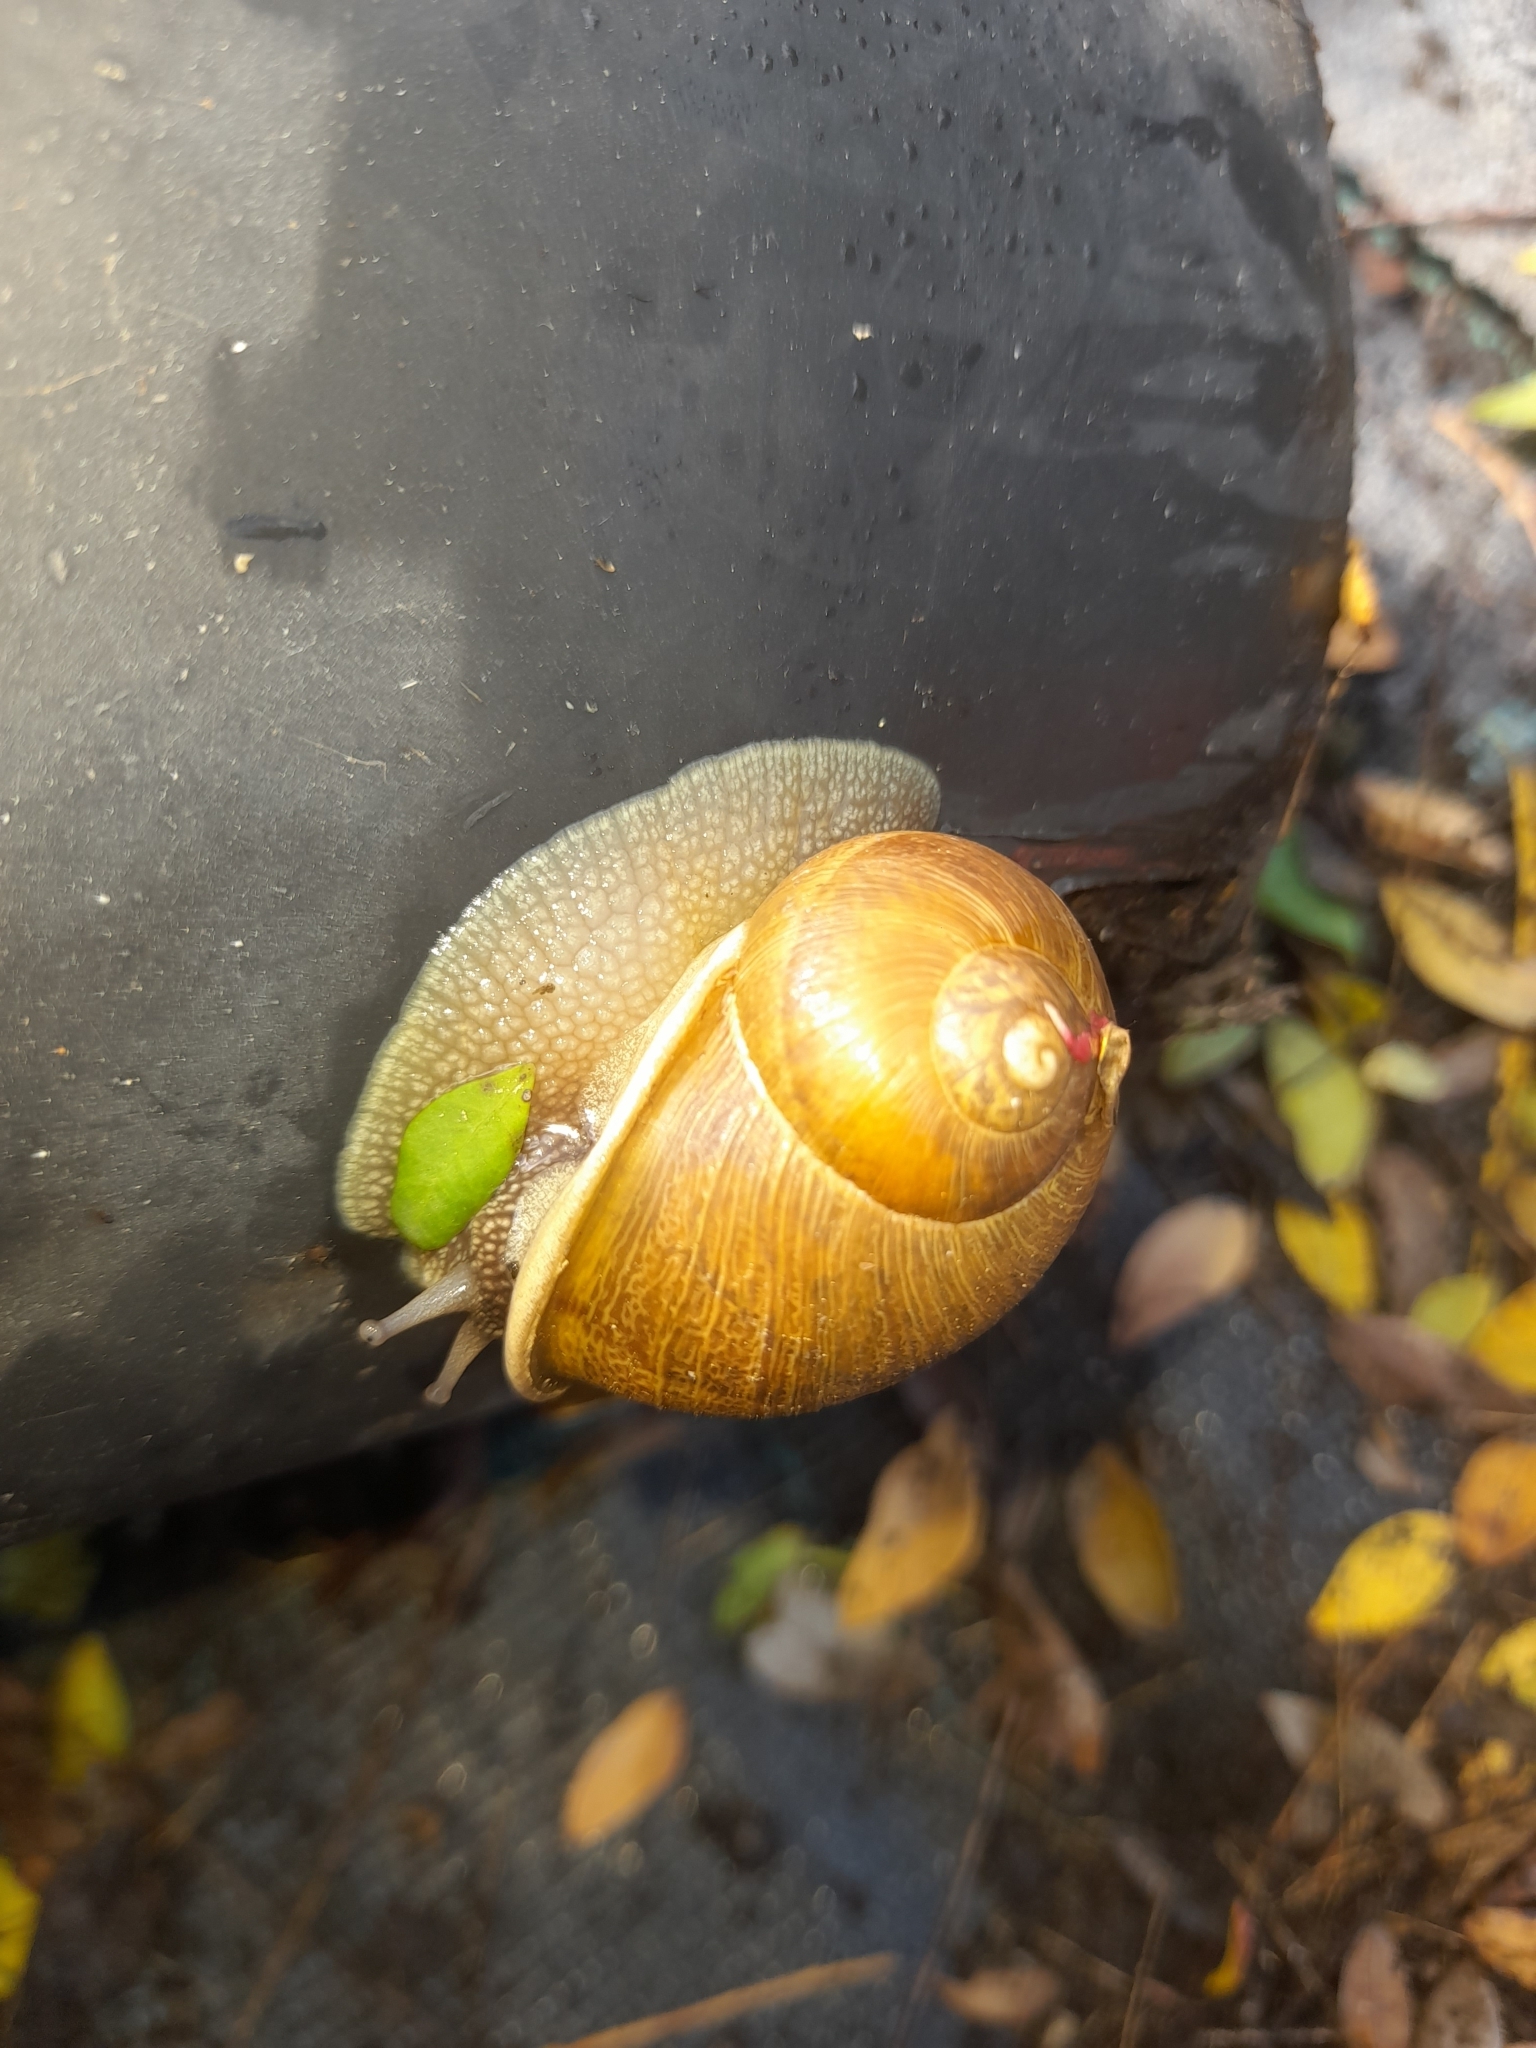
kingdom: Animalia
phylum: Mollusca
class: Gastropoda
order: Stylommatophora
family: Helicidae
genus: Cornu
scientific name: Cornu aspersum
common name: Brown garden snail
